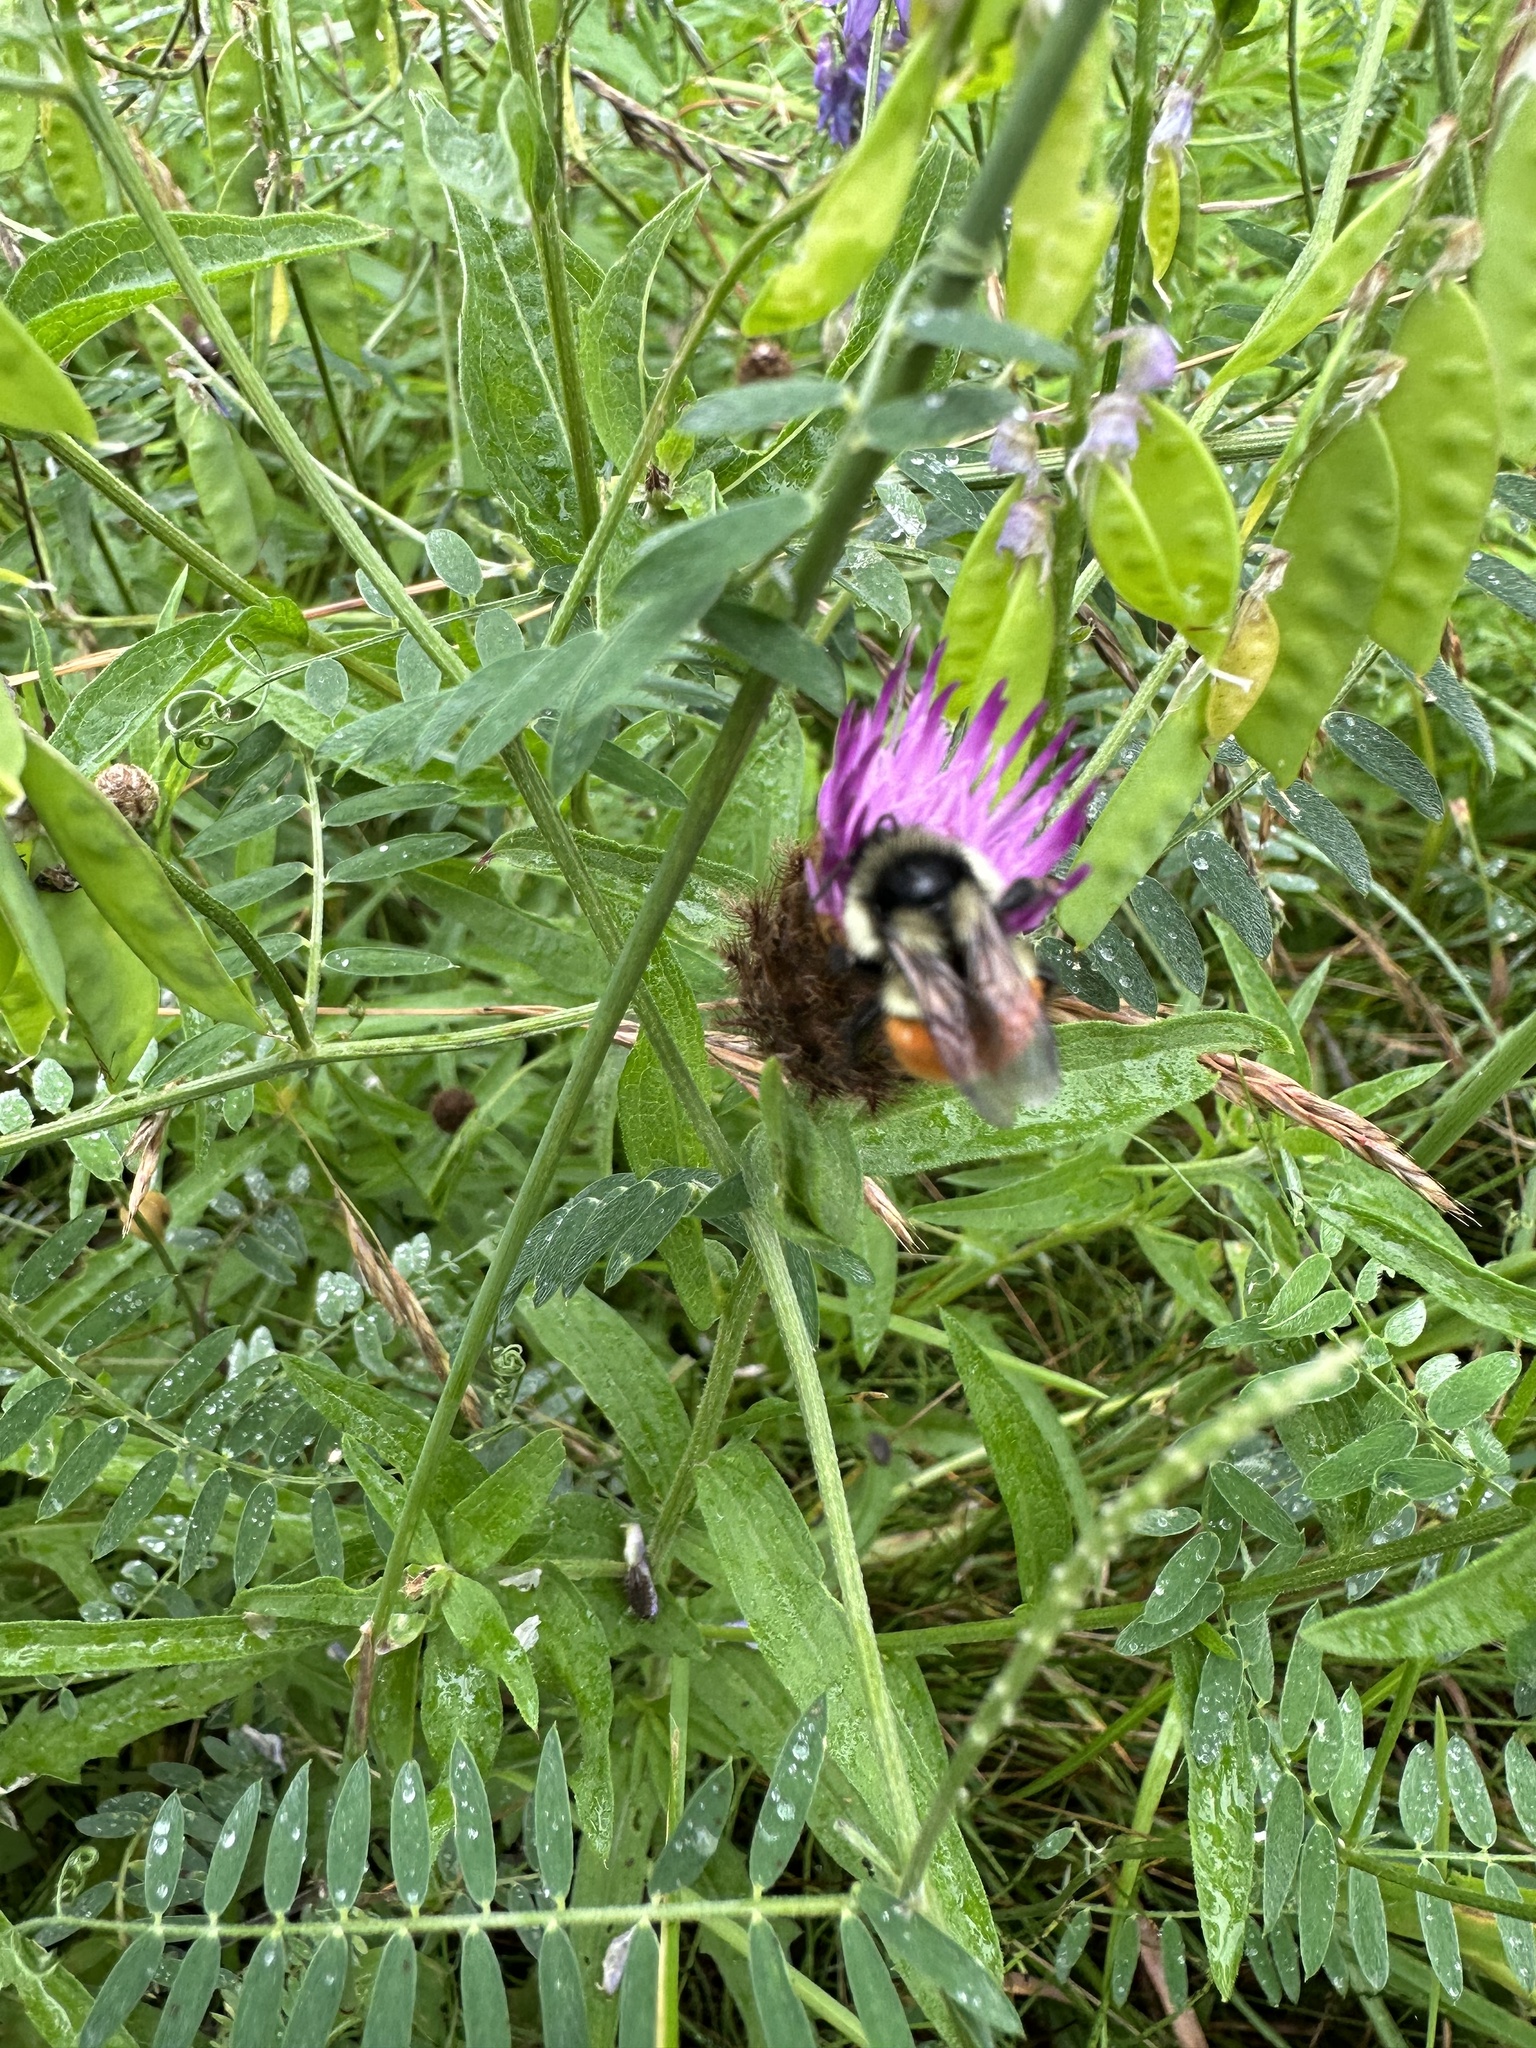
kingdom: Animalia
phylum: Arthropoda
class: Insecta
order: Hymenoptera
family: Apidae
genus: Bombus
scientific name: Bombus ternarius
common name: Tri-colored bumble bee
